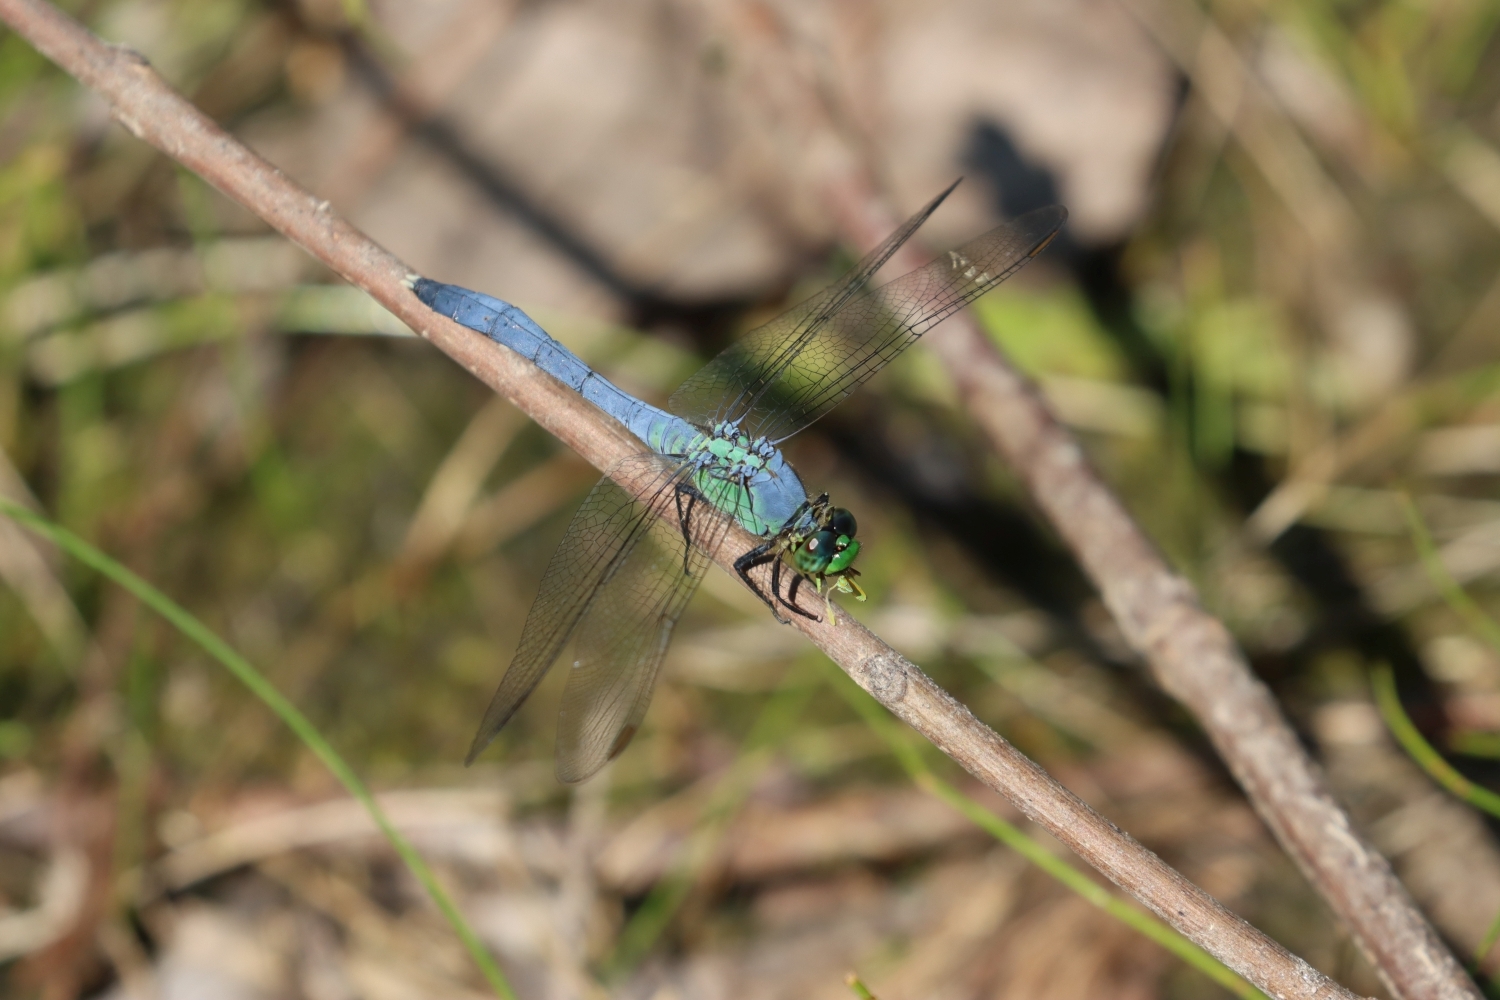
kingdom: Animalia
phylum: Arthropoda
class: Insecta
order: Odonata
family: Libellulidae
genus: Erythemis
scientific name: Erythemis simplicicollis
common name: Eastern pondhawk
